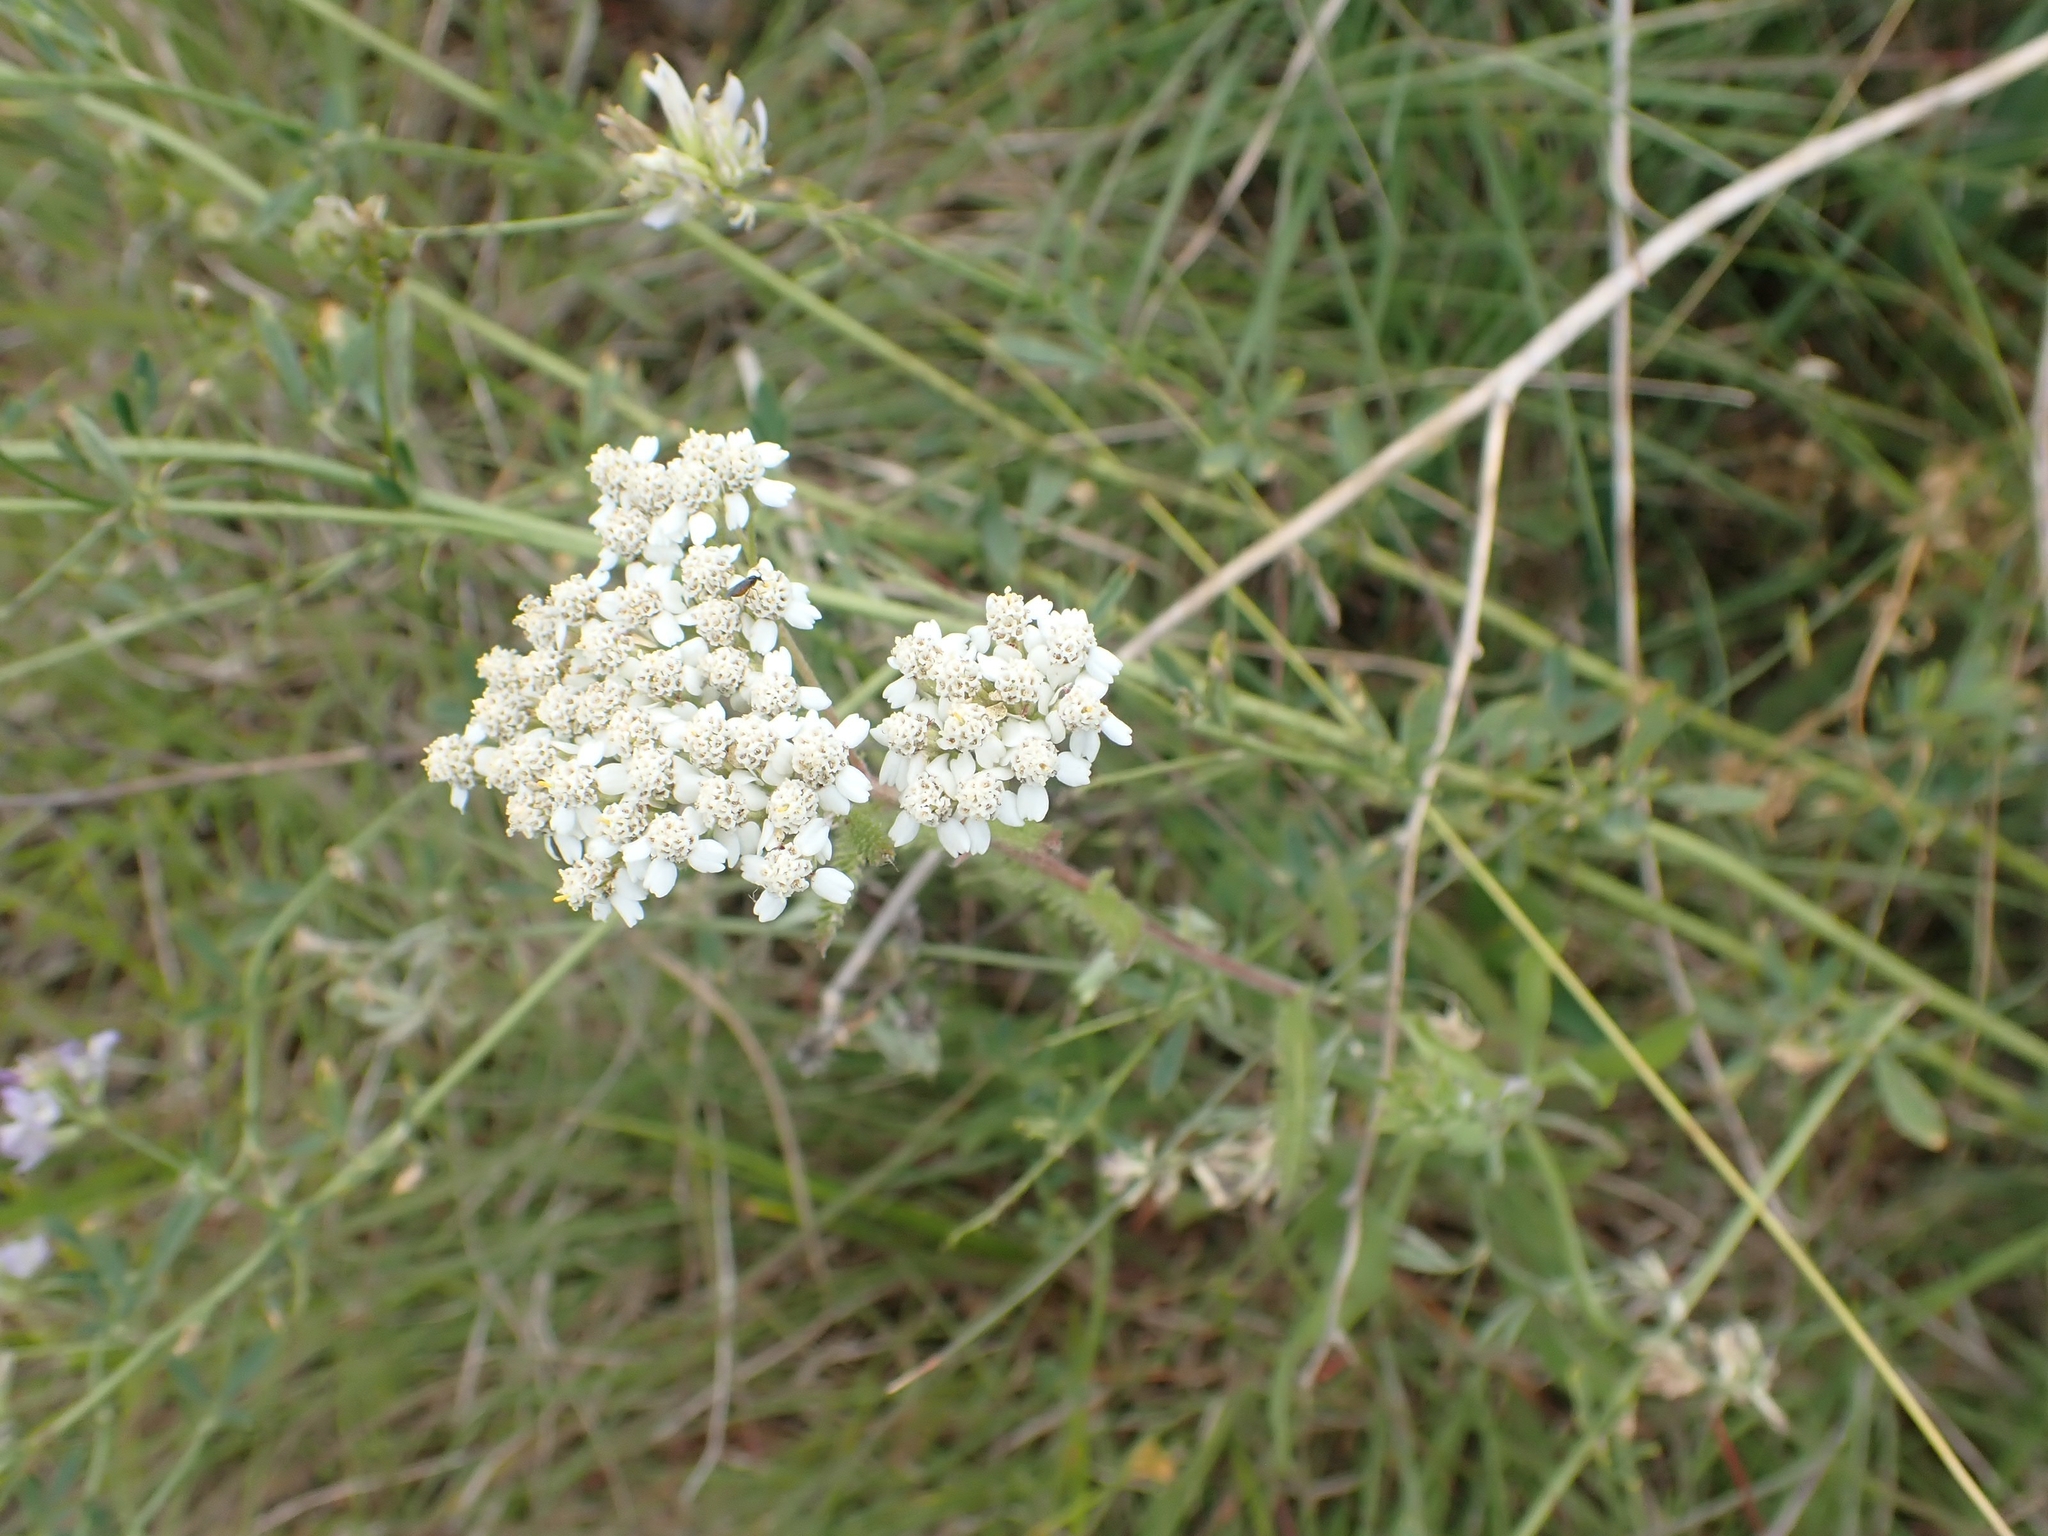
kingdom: Plantae
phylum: Tracheophyta
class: Magnoliopsida
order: Asterales
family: Asteraceae
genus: Achillea
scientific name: Achillea millefolium
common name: Yarrow
